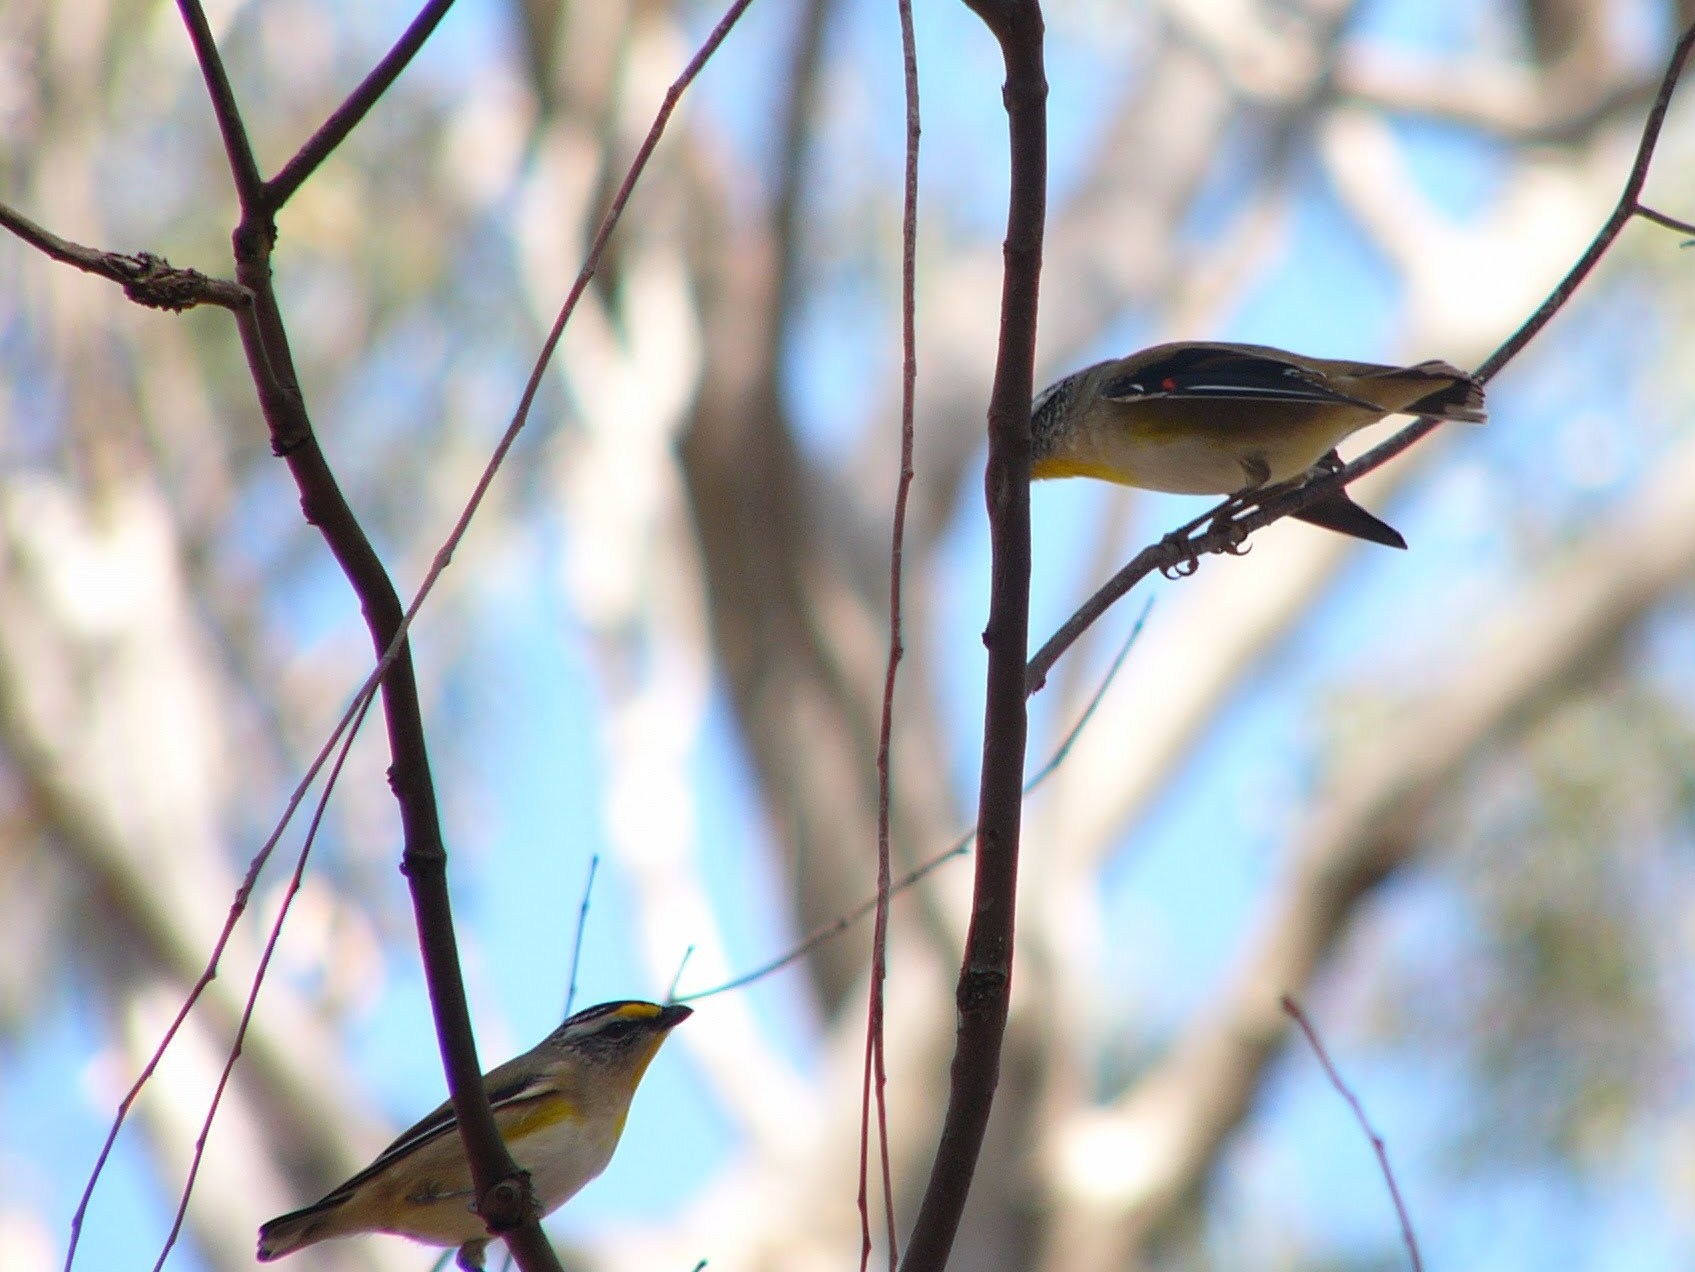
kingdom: Animalia
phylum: Chordata
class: Aves
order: Passeriformes
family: Pardalotidae
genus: Pardalotus
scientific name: Pardalotus striatus
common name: Striated pardalote
